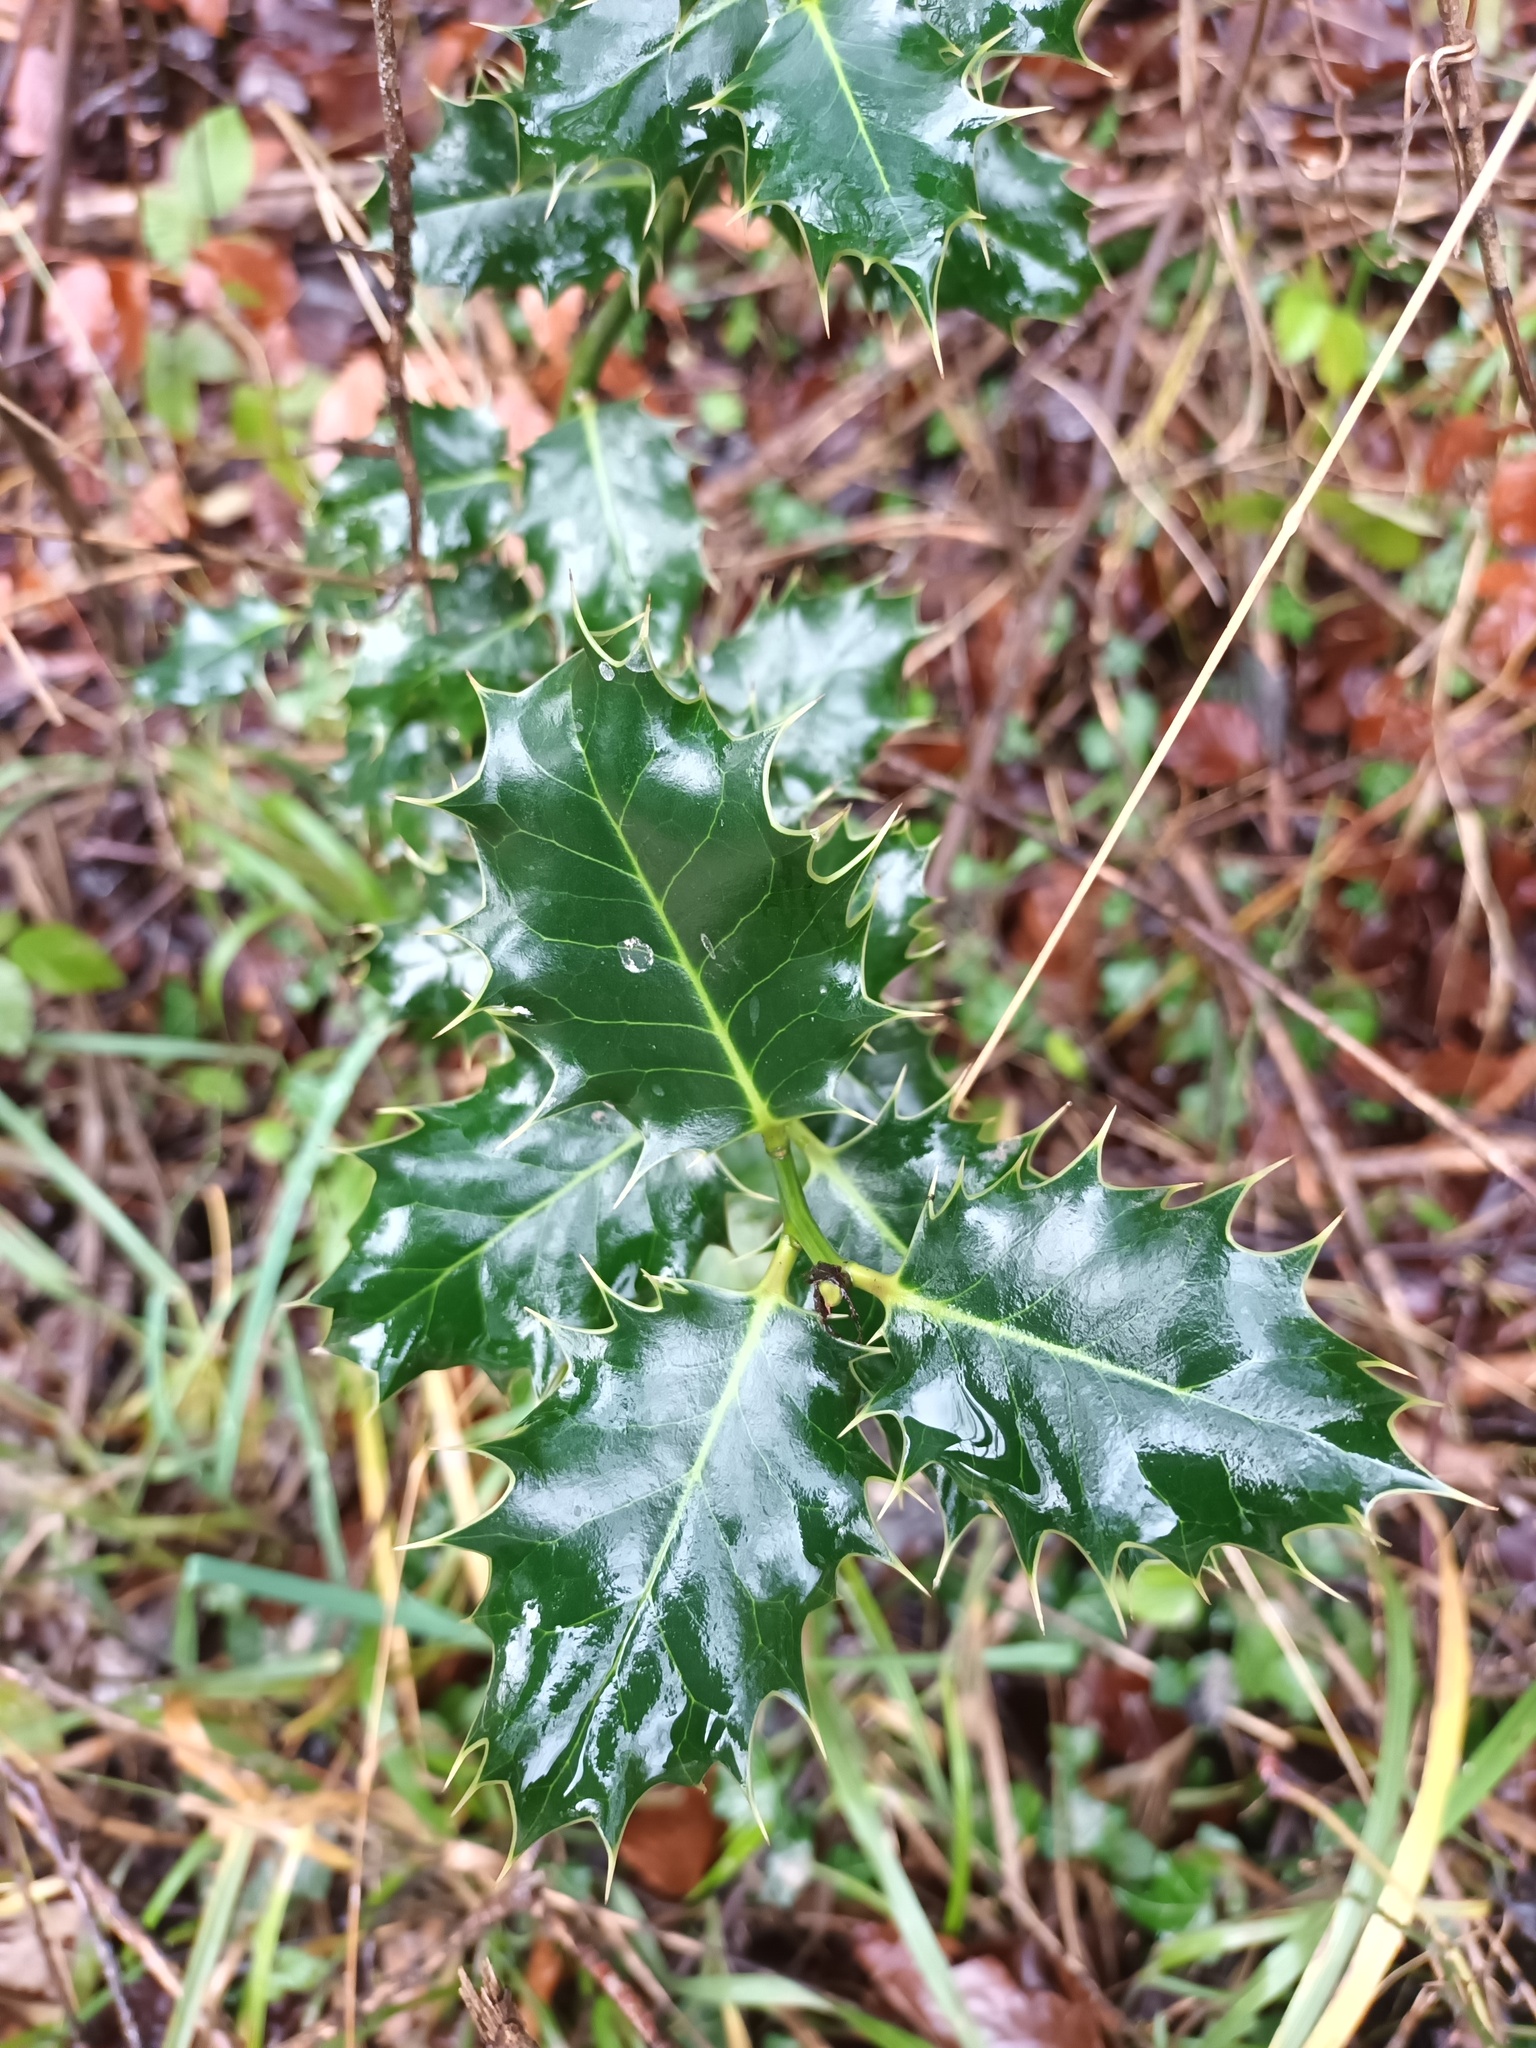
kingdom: Plantae
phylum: Tracheophyta
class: Magnoliopsida
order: Aquifoliales
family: Aquifoliaceae
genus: Ilex
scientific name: Ilex aquifolium
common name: English holly
